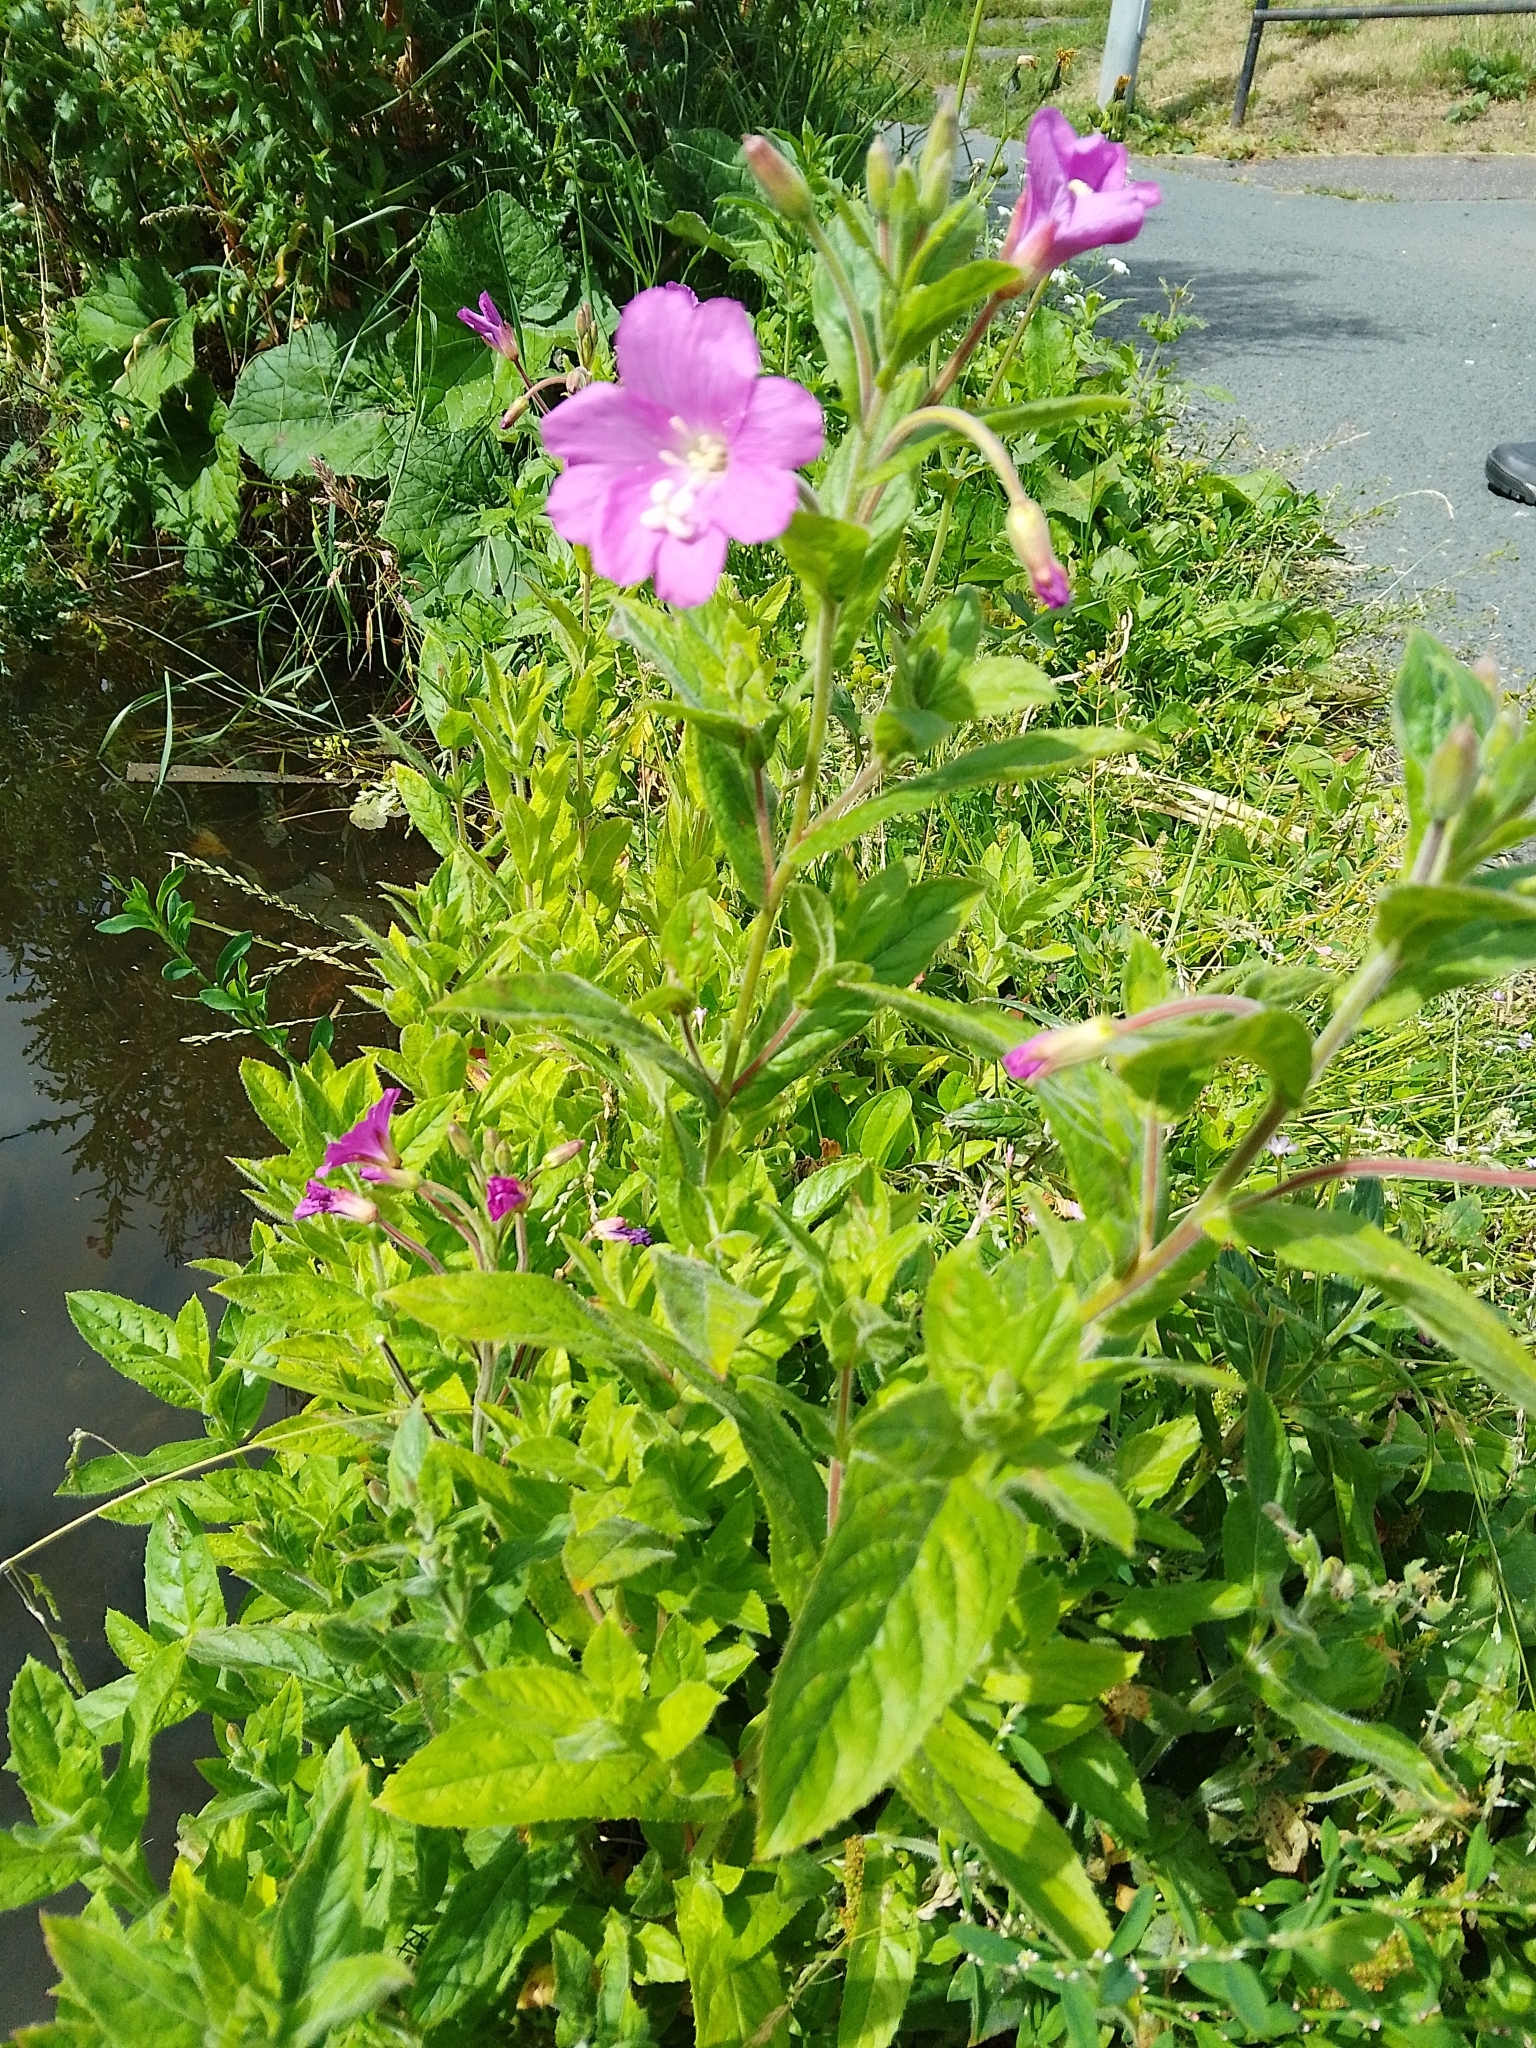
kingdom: Plantae
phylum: Tracheophyta
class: Magnoliopsida
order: Myrtales
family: Onagraceae
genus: Epilobium
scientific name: Epilobium hirsutum
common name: Great willowherb
